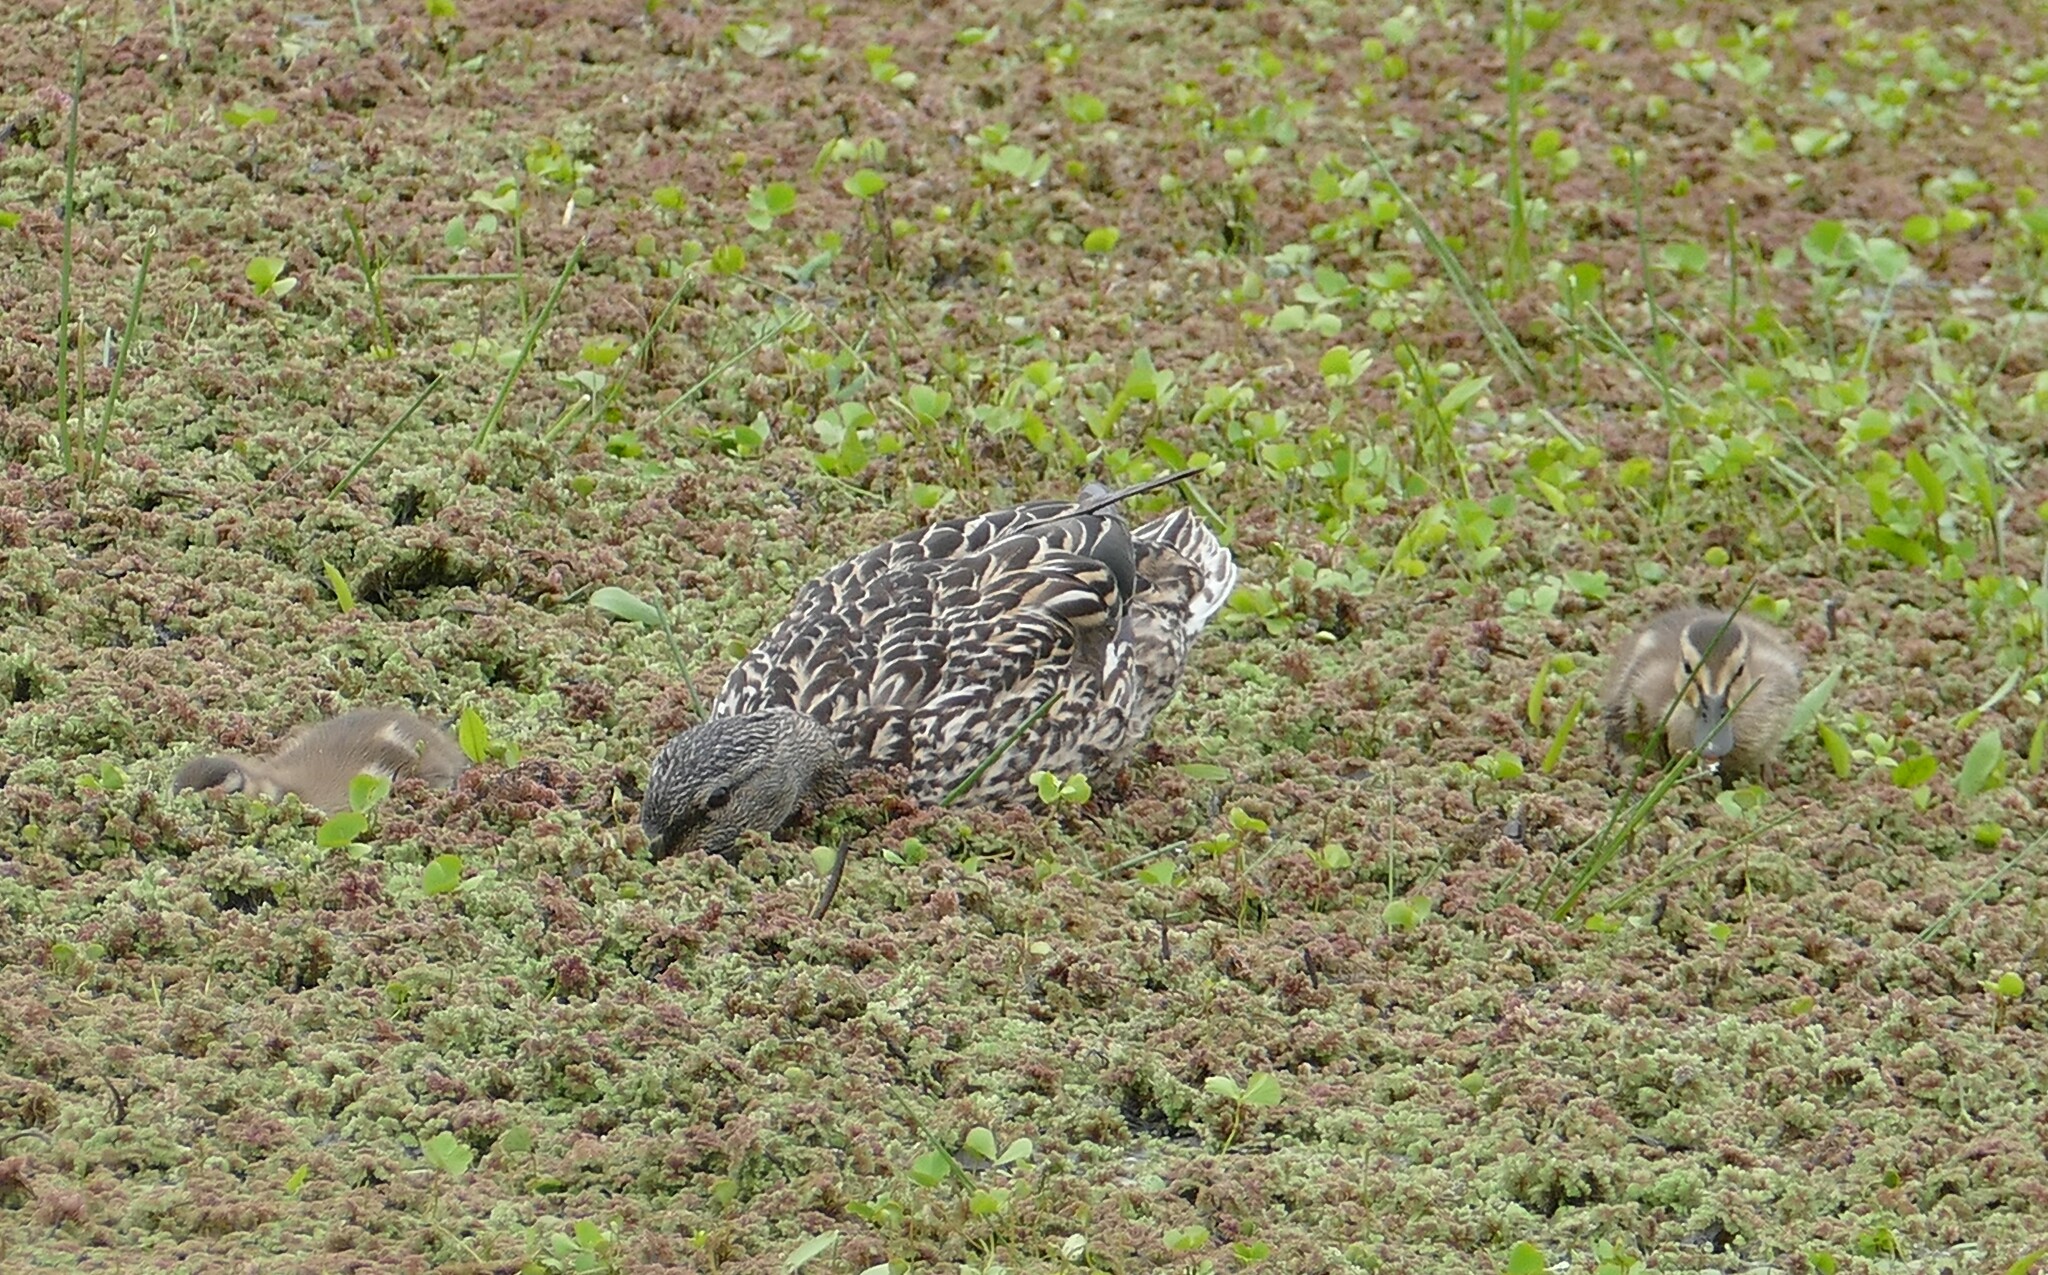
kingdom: Animalia
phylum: Chordata
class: Aves
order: Anseriformes
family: Anatidae
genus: Anas
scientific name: Anas platyrhynchos
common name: Mallard
